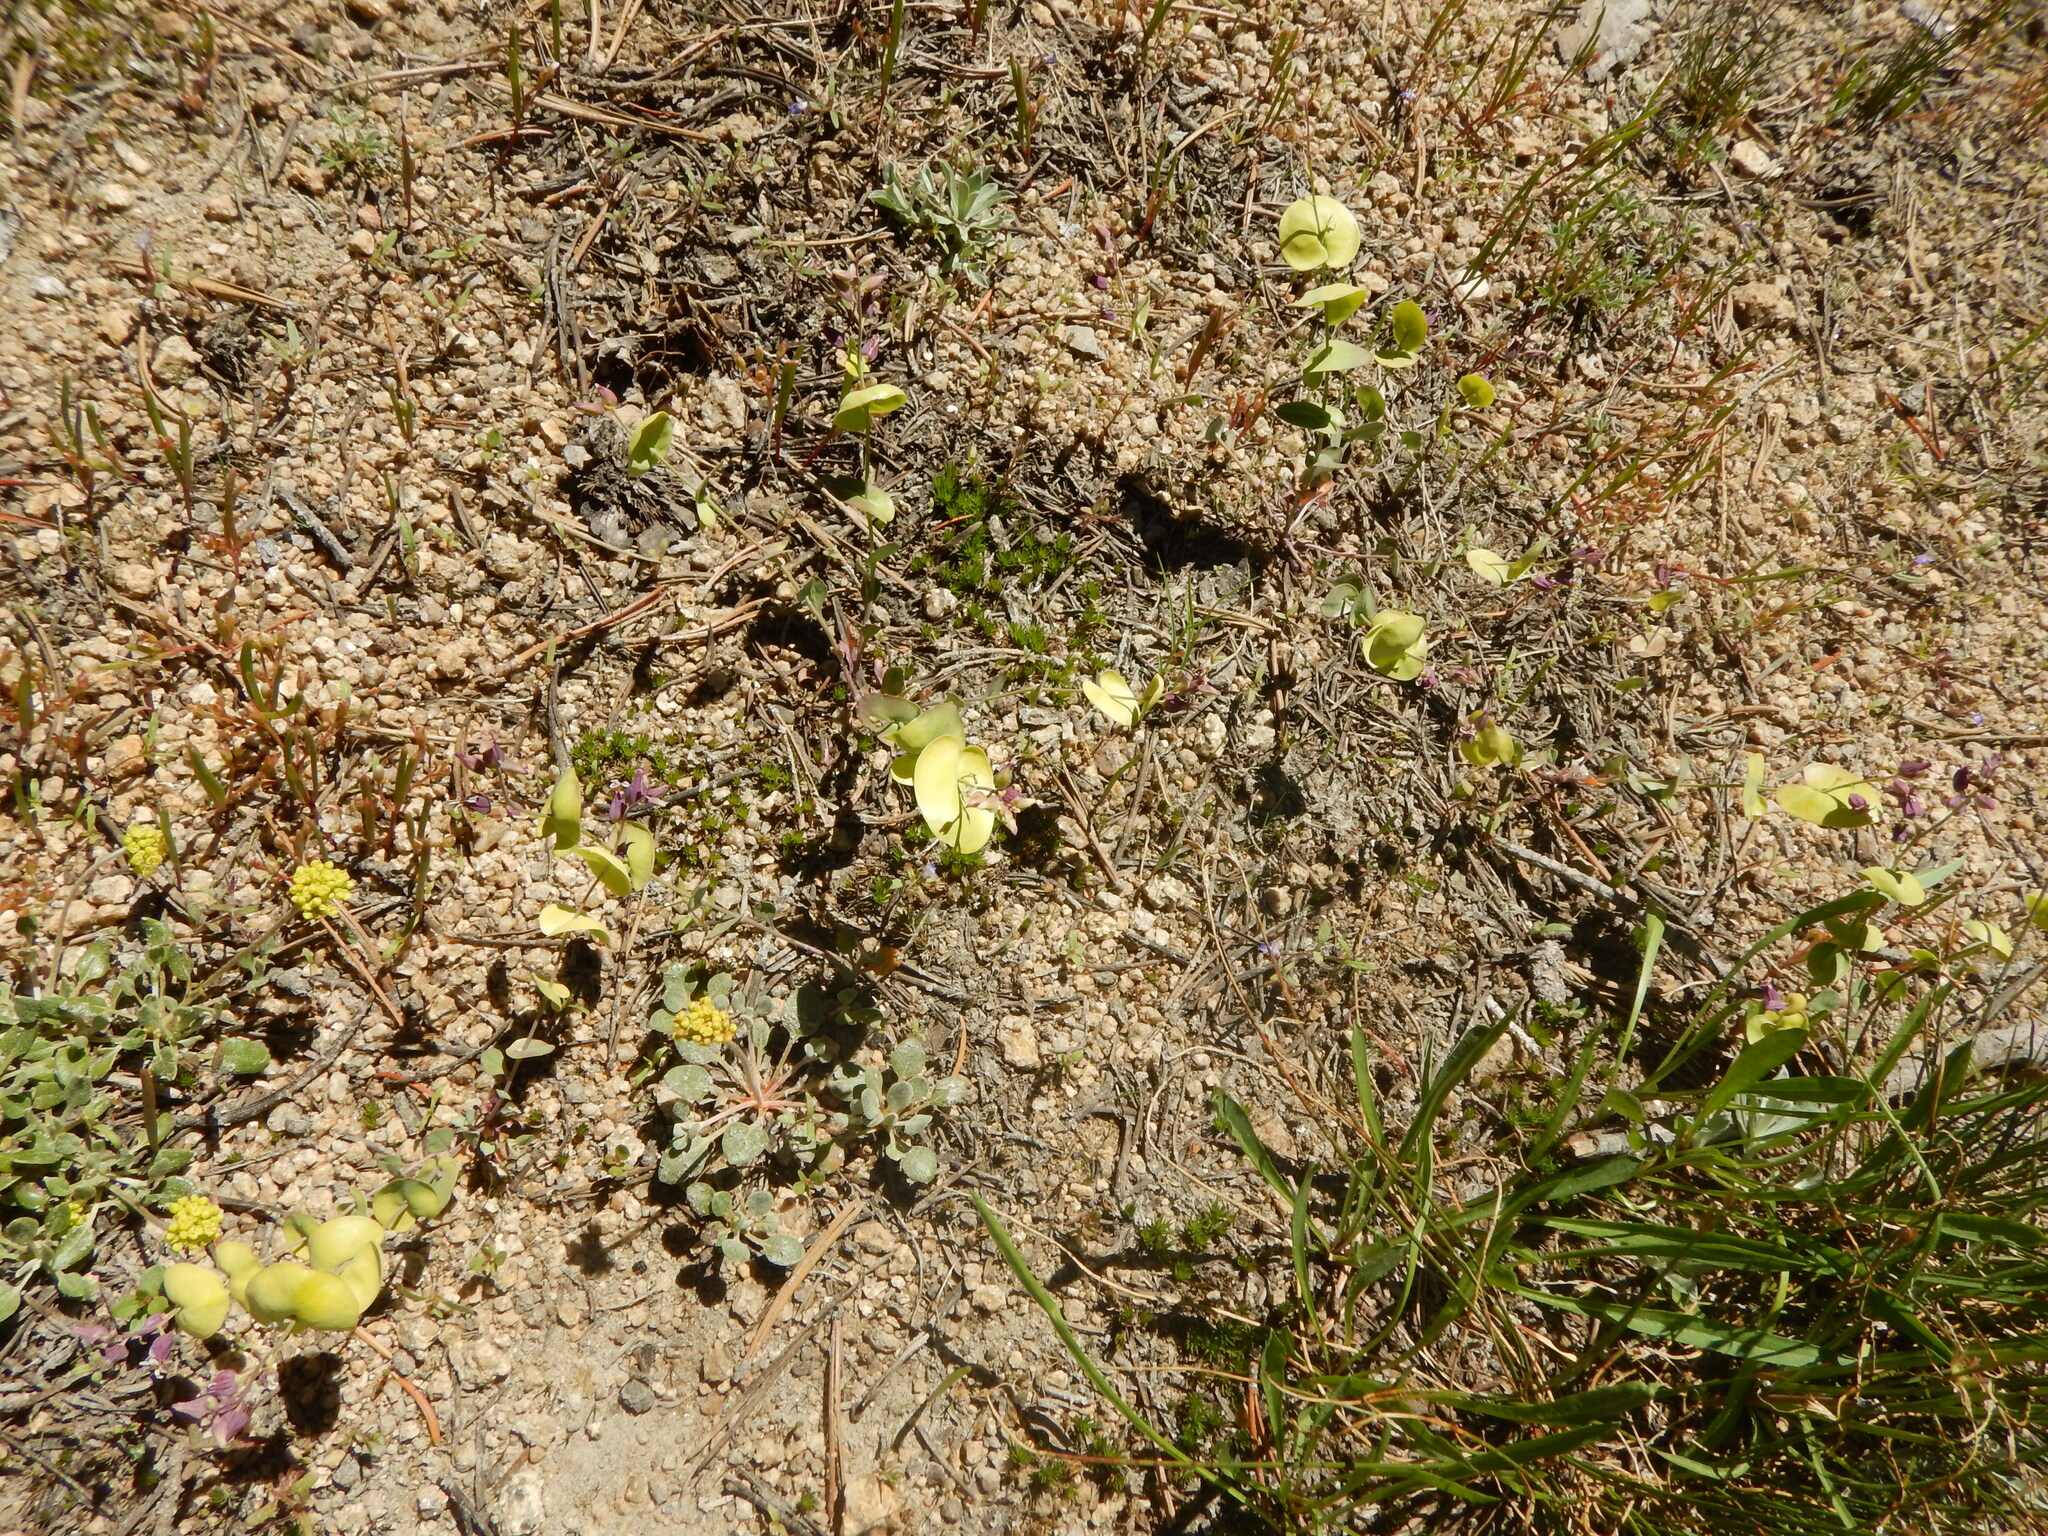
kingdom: Plantae
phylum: Tracheophyta
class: Magnoliopsida
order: Brassicales
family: Brassicaceae
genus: Streptanthus
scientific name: Streptanthus tortuosus
